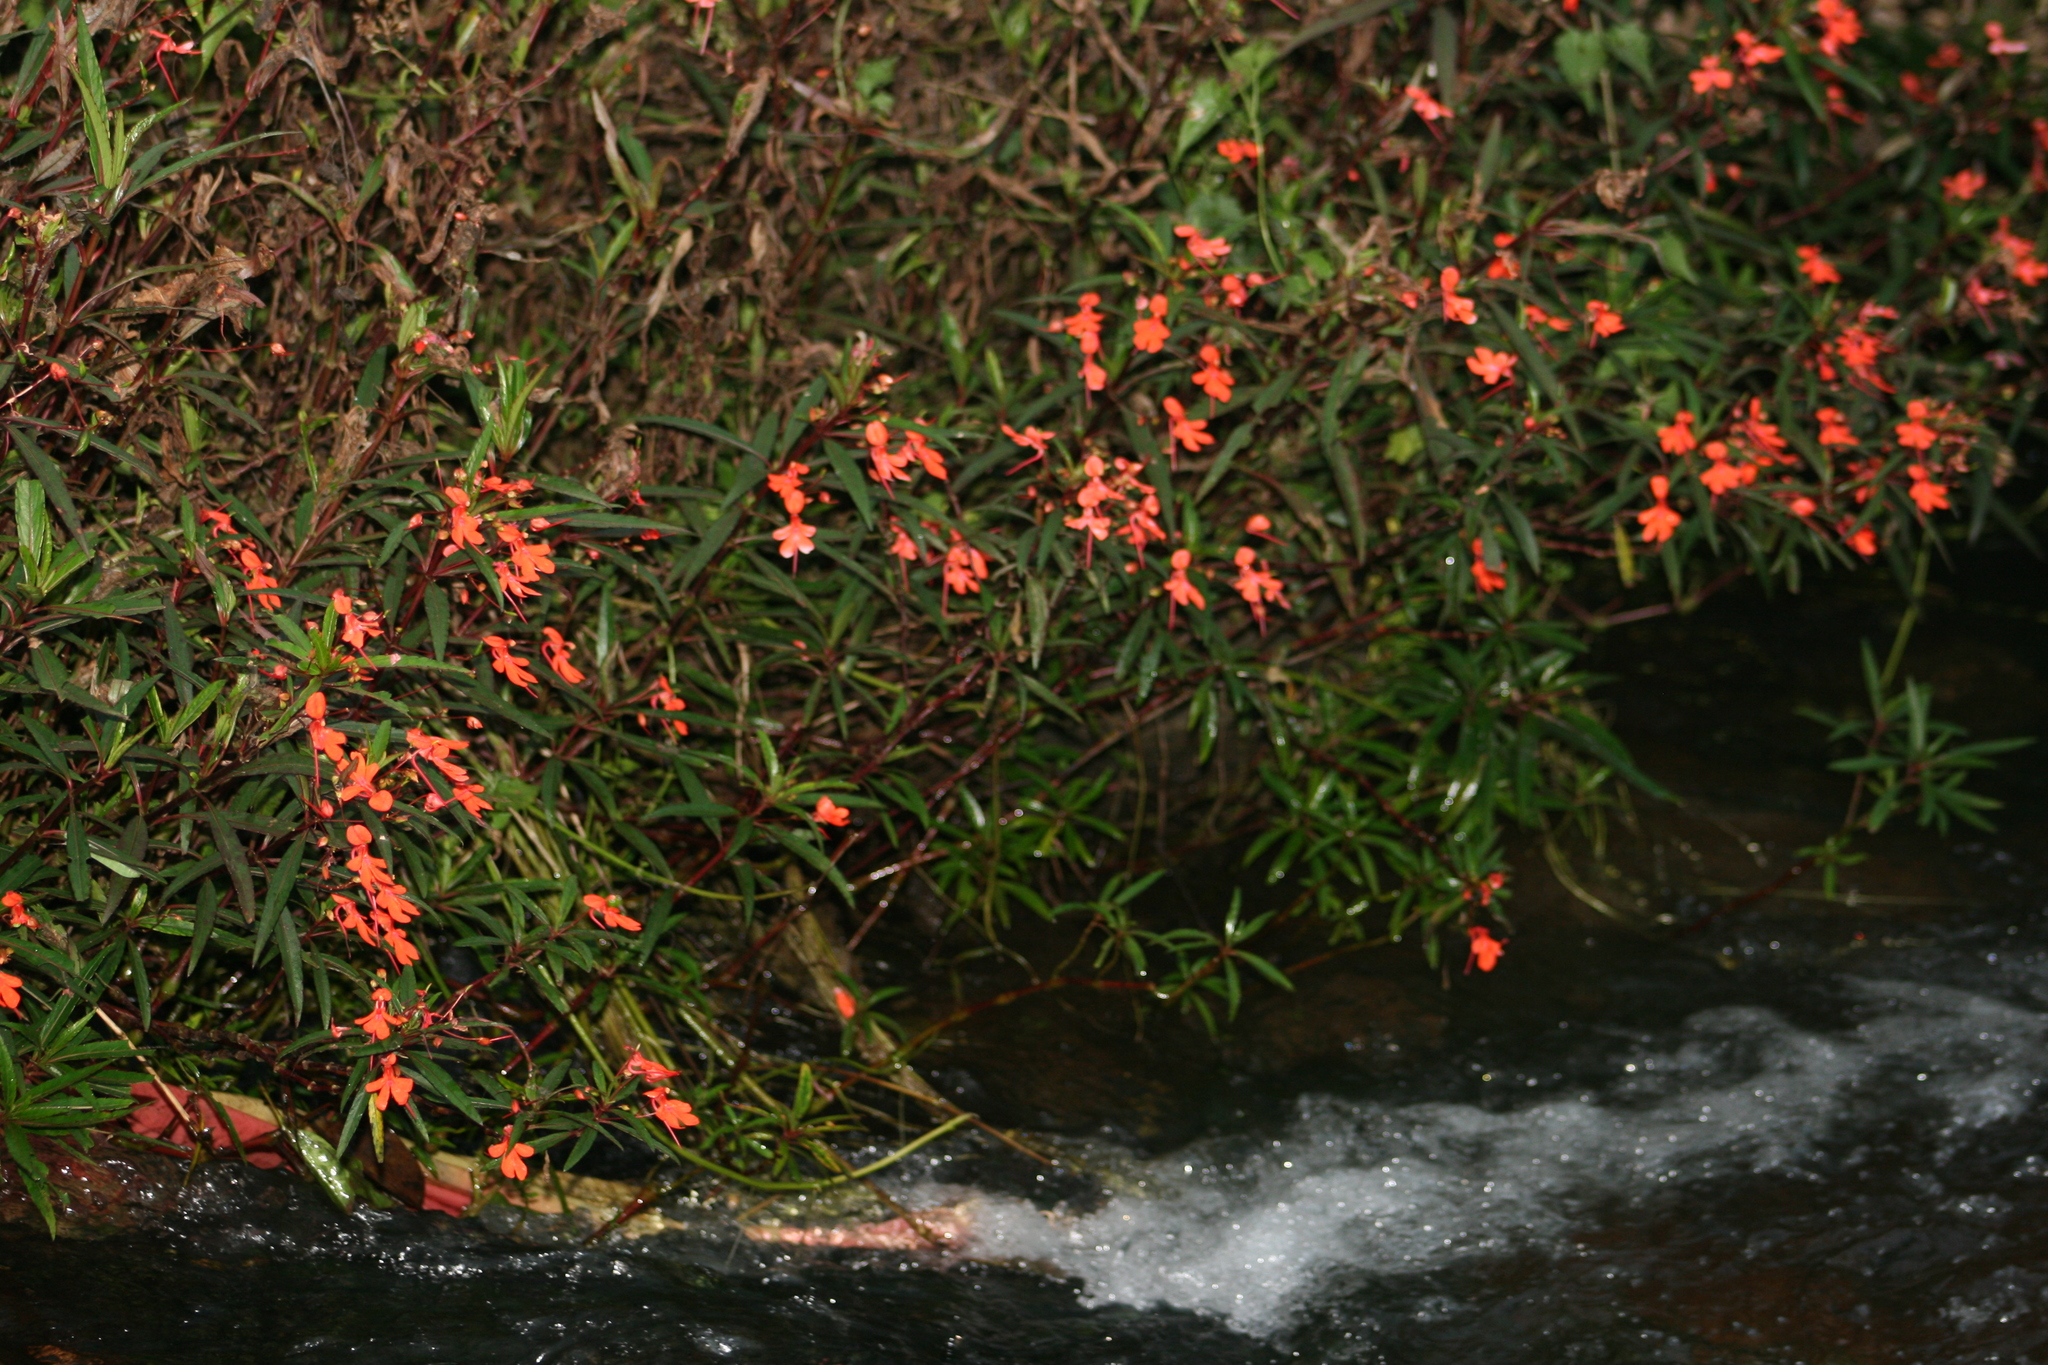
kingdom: Plantae
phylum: Tracheophyta
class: Magnoliopsida
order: Ericales
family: Balsaminaceae
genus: Impatiens
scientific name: Impatiens verticillata
